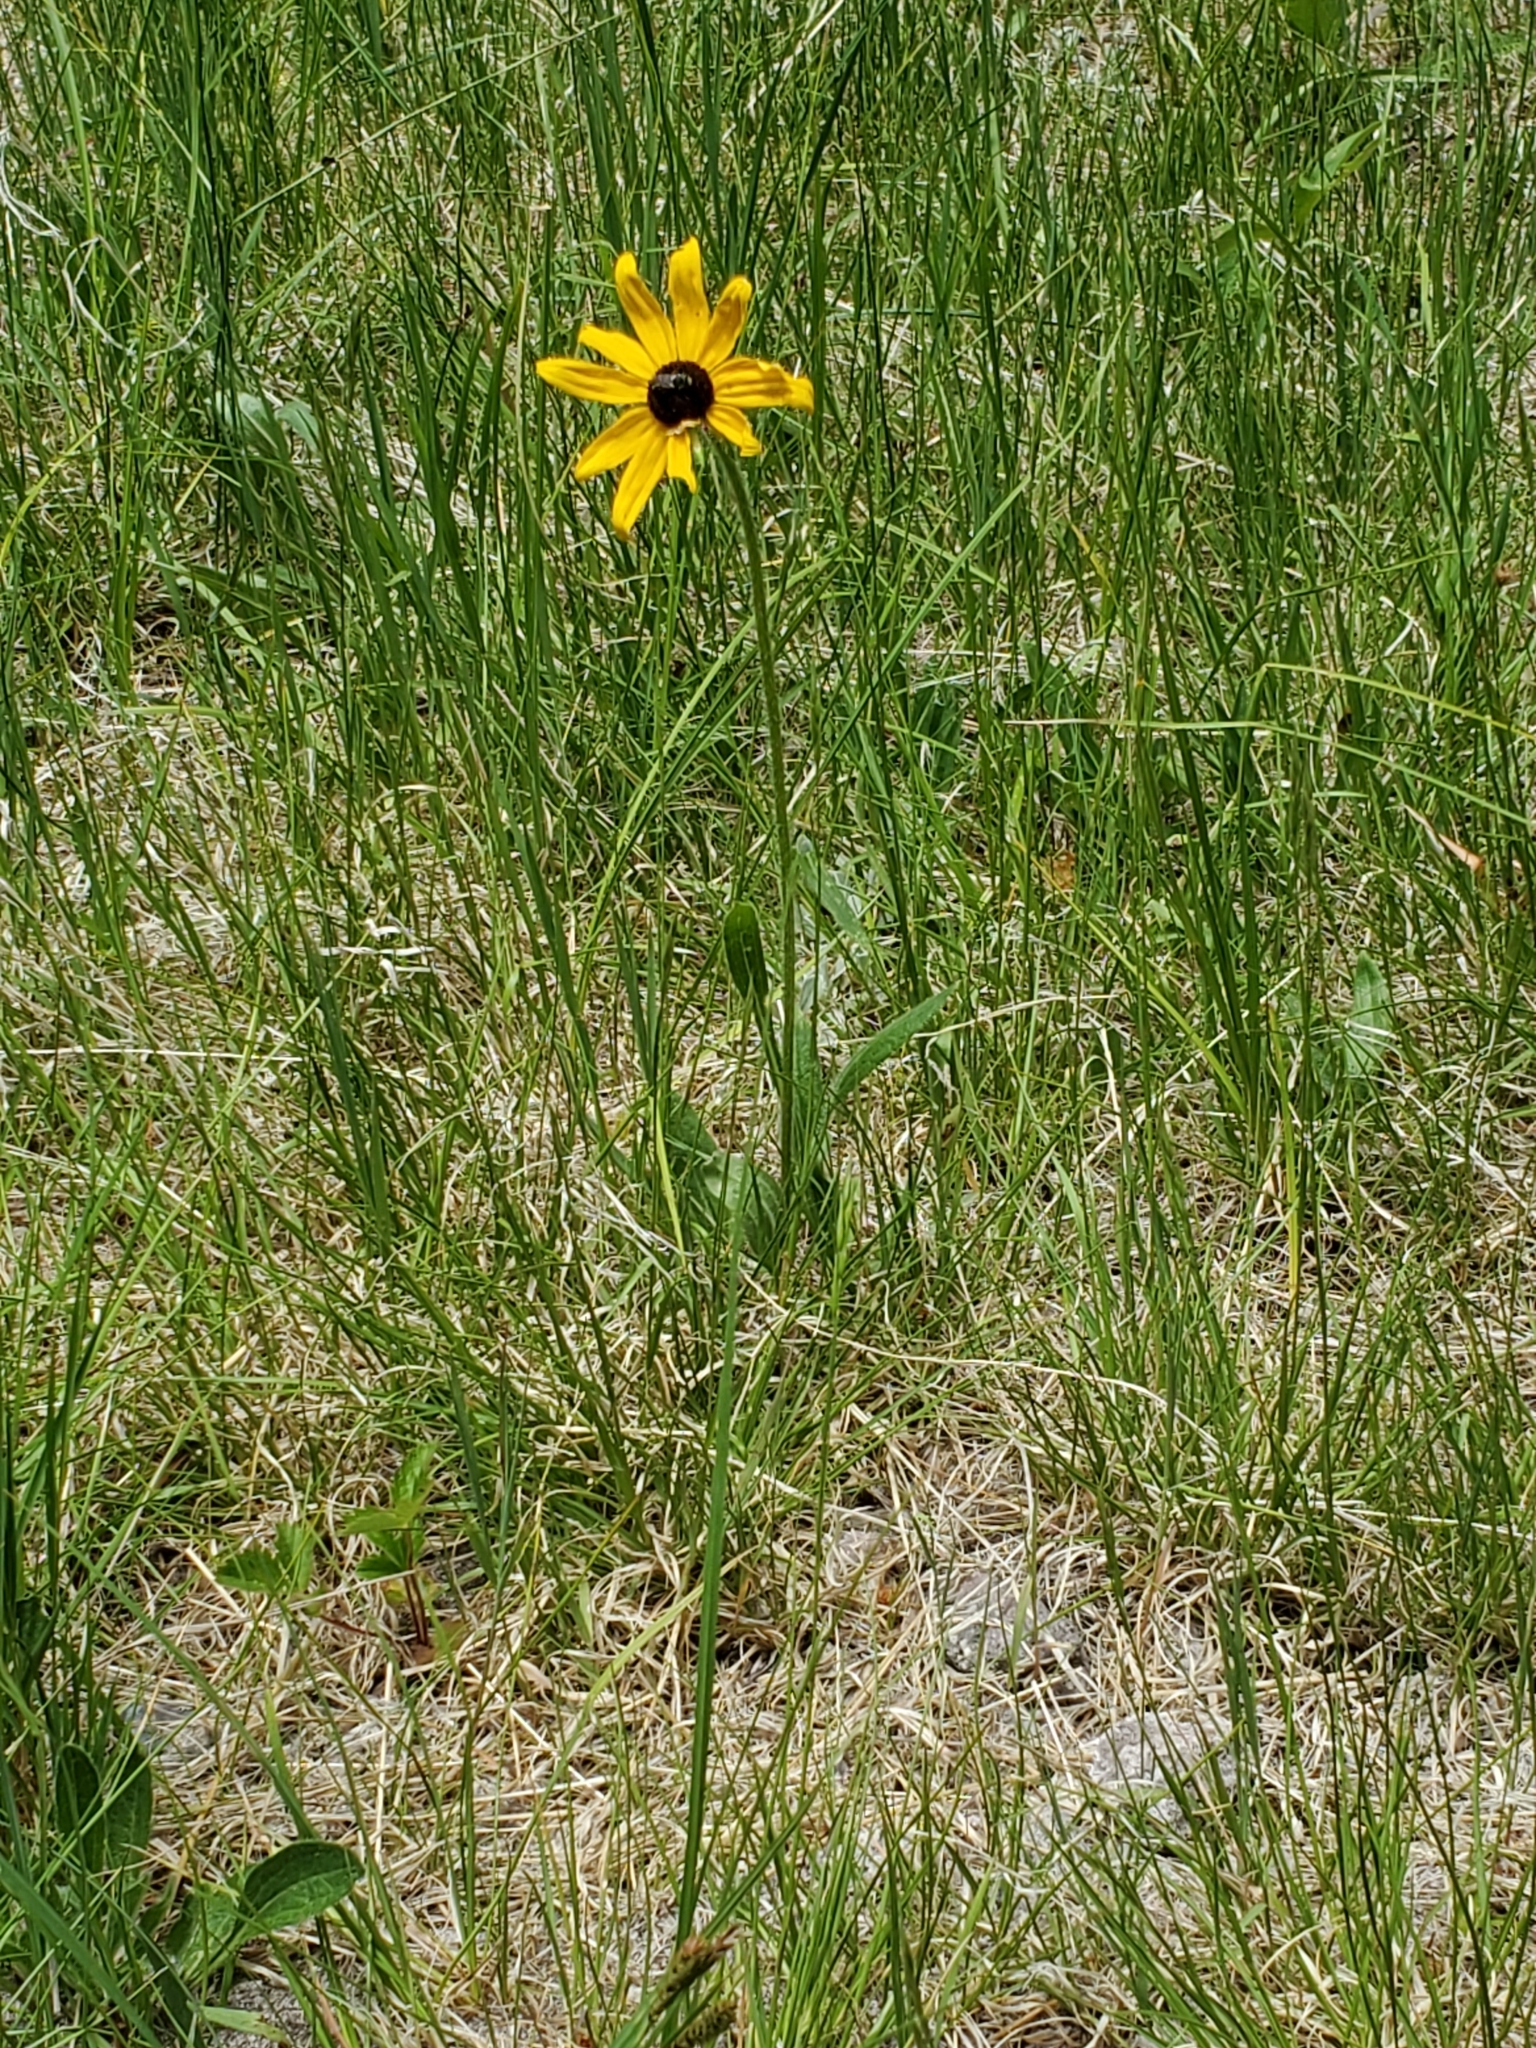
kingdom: Plantae
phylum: Tracheophyta
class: Magnoliopsida
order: Asterales
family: Asteraceae
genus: Rudbeckia
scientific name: Rudbeckia hirta
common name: Black-eyed-susan
